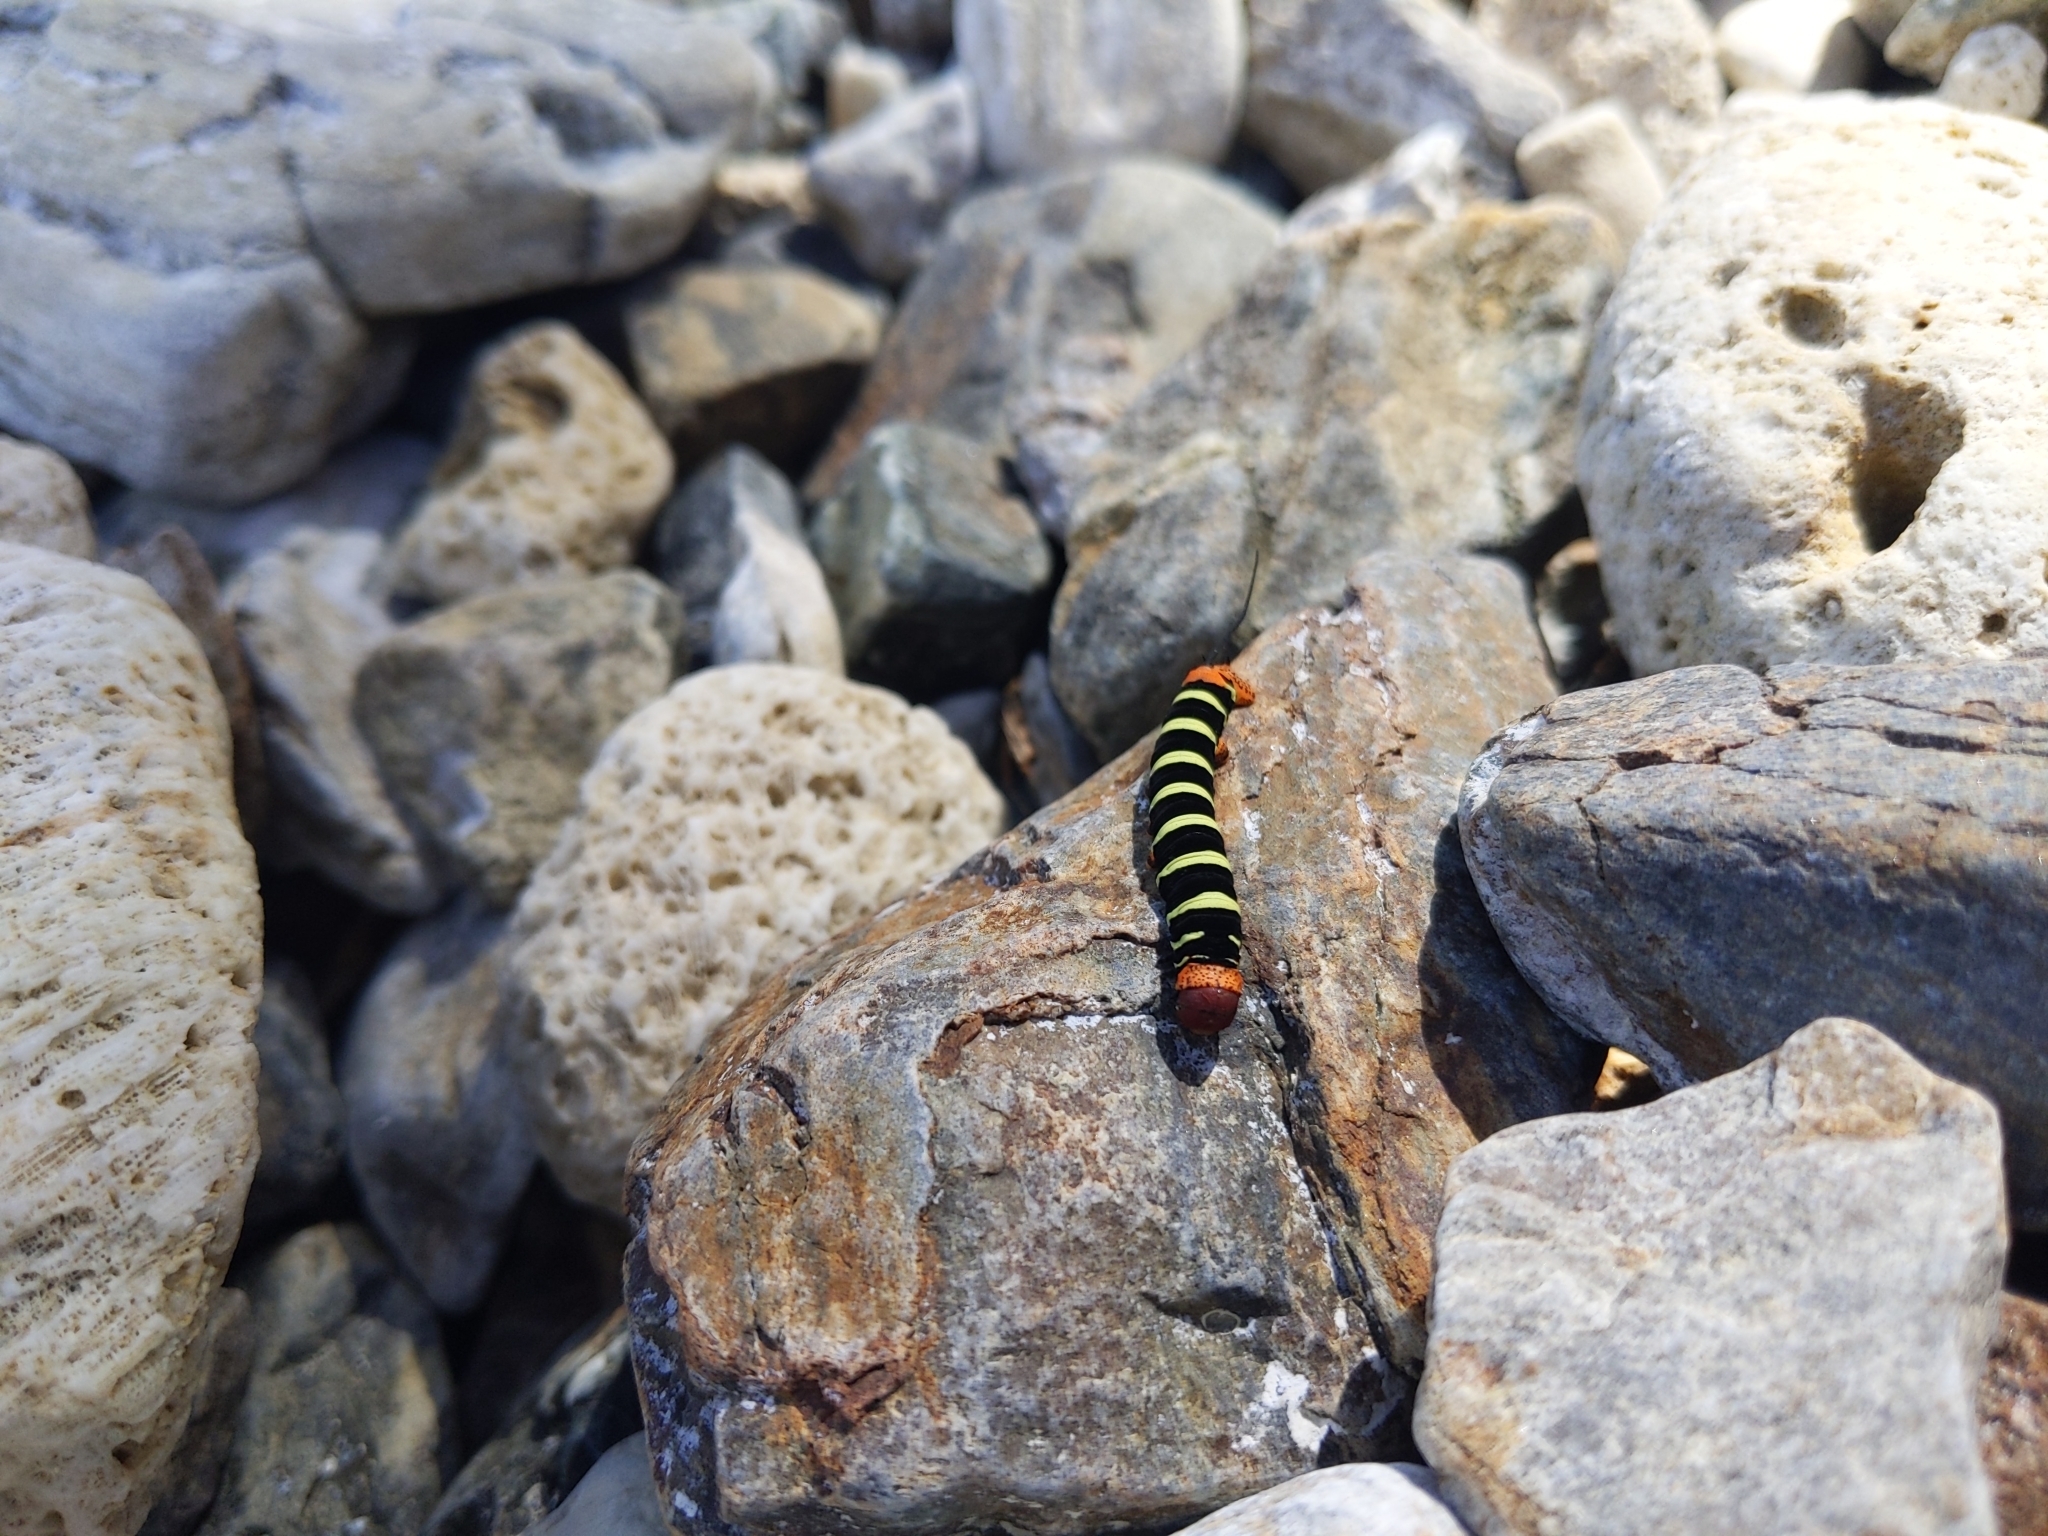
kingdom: Animalia
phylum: Arthropoda
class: Insecta
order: Lepidoptera
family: Sphingidae
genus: Pseudosphinx
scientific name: Pseudosphinx tetrio
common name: Tetrio sphinx
